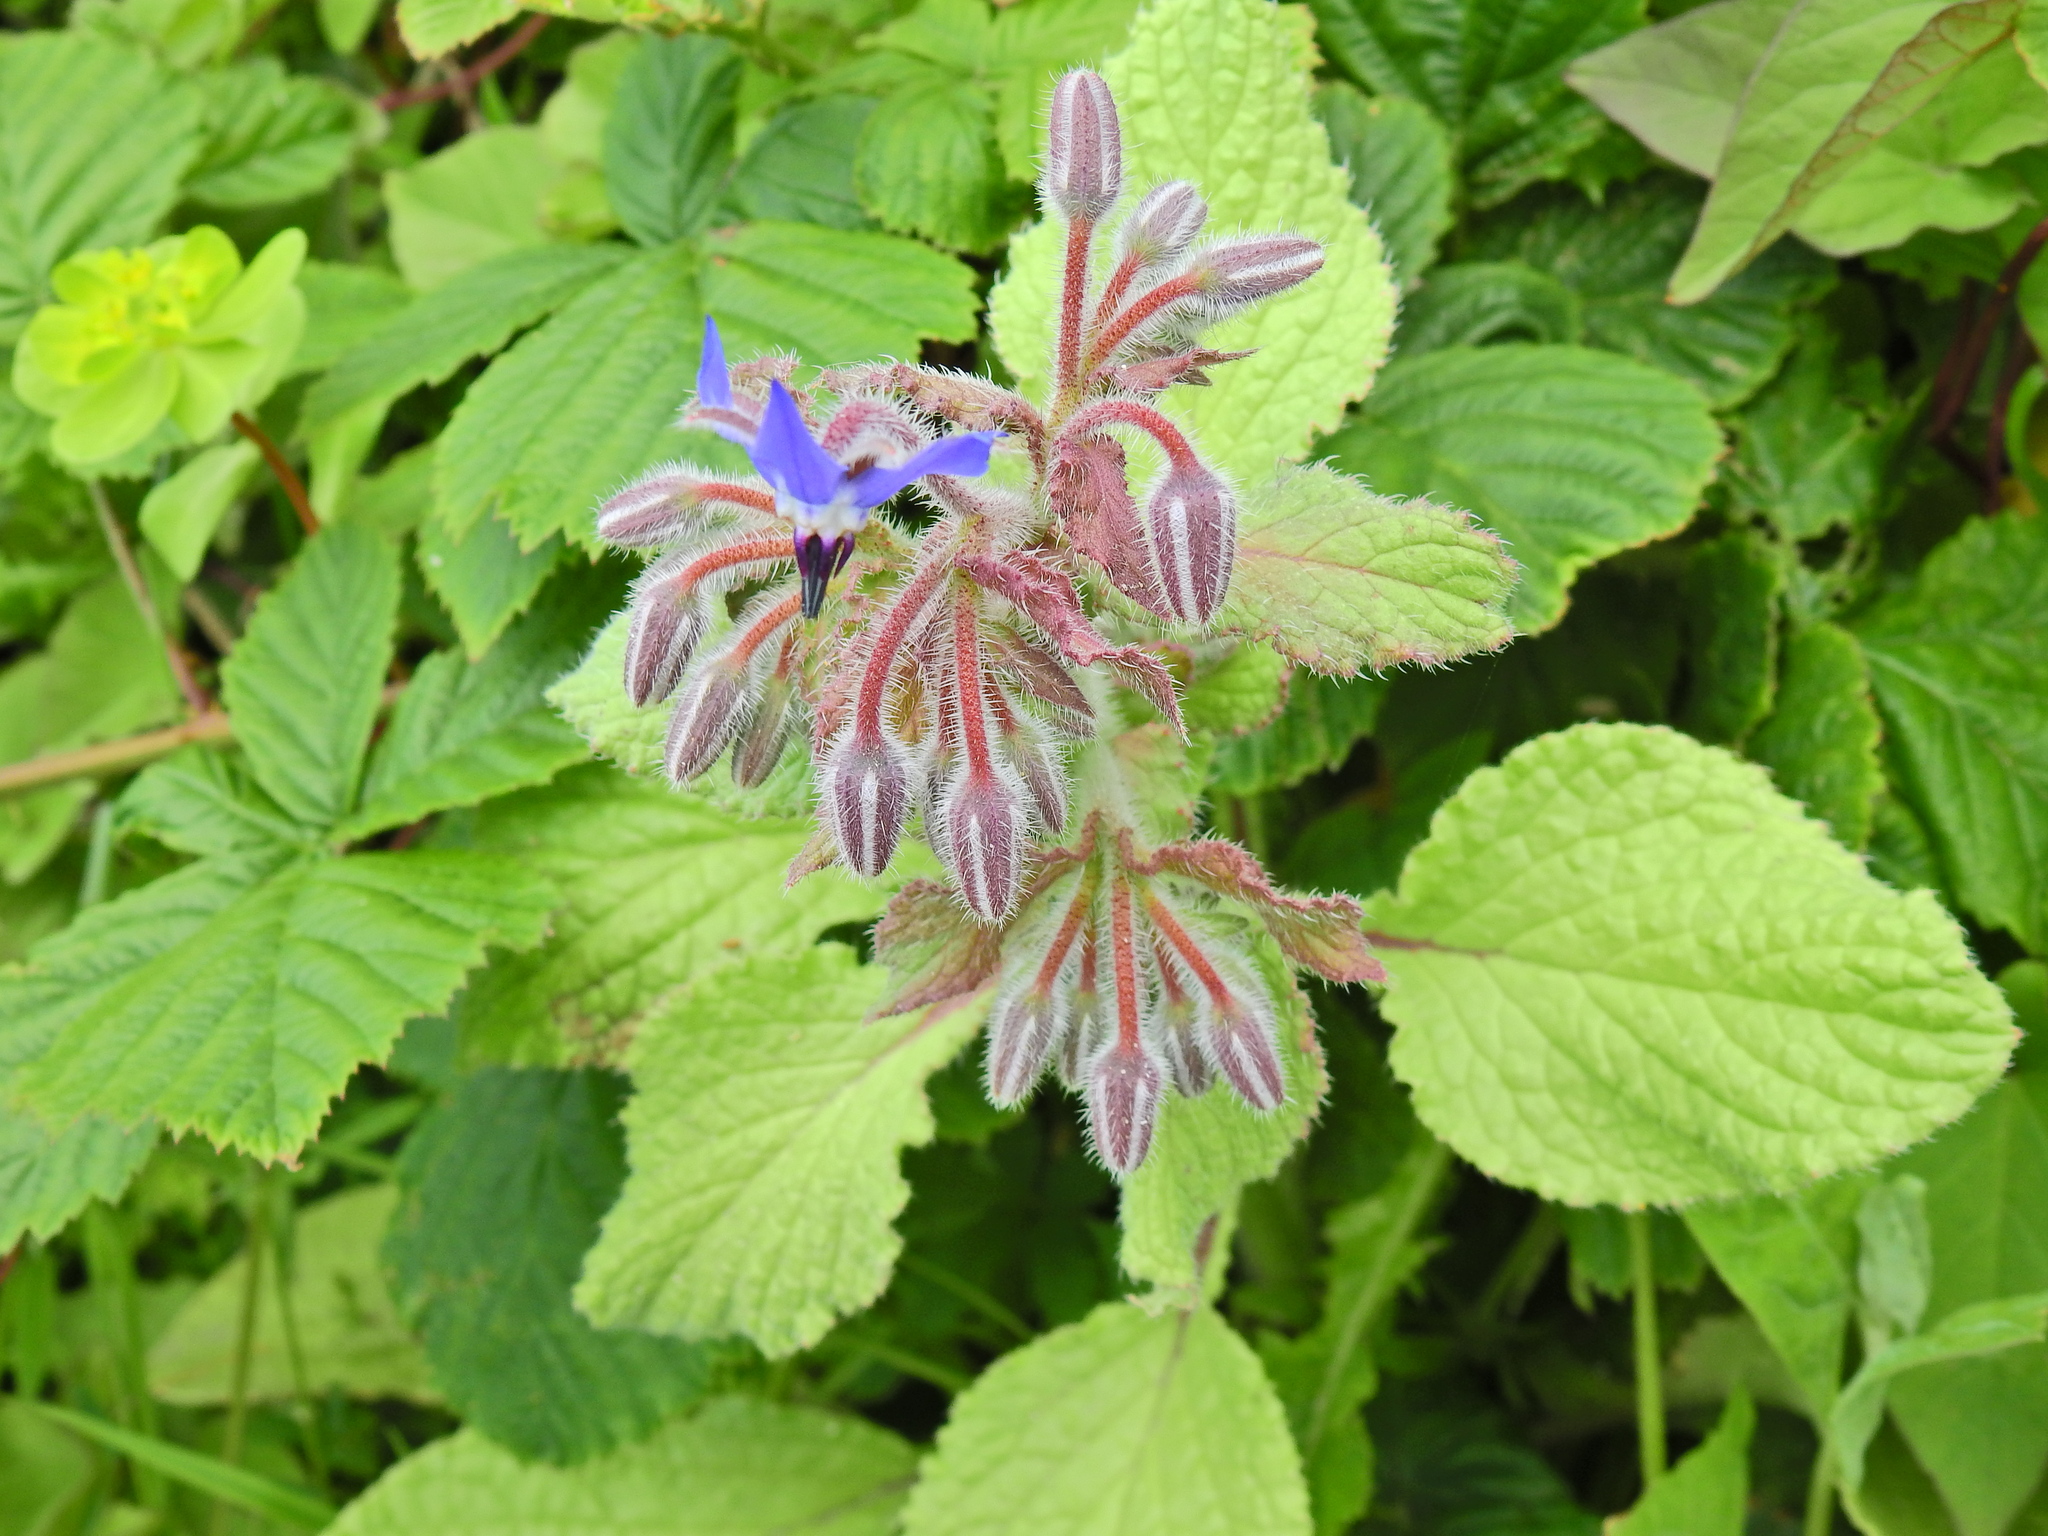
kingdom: Plantae
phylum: Tracheophyta
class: Magnoliopsida
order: Boraginales
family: Boraginaceae
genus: Borago
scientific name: Borago officinalis
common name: Borage
